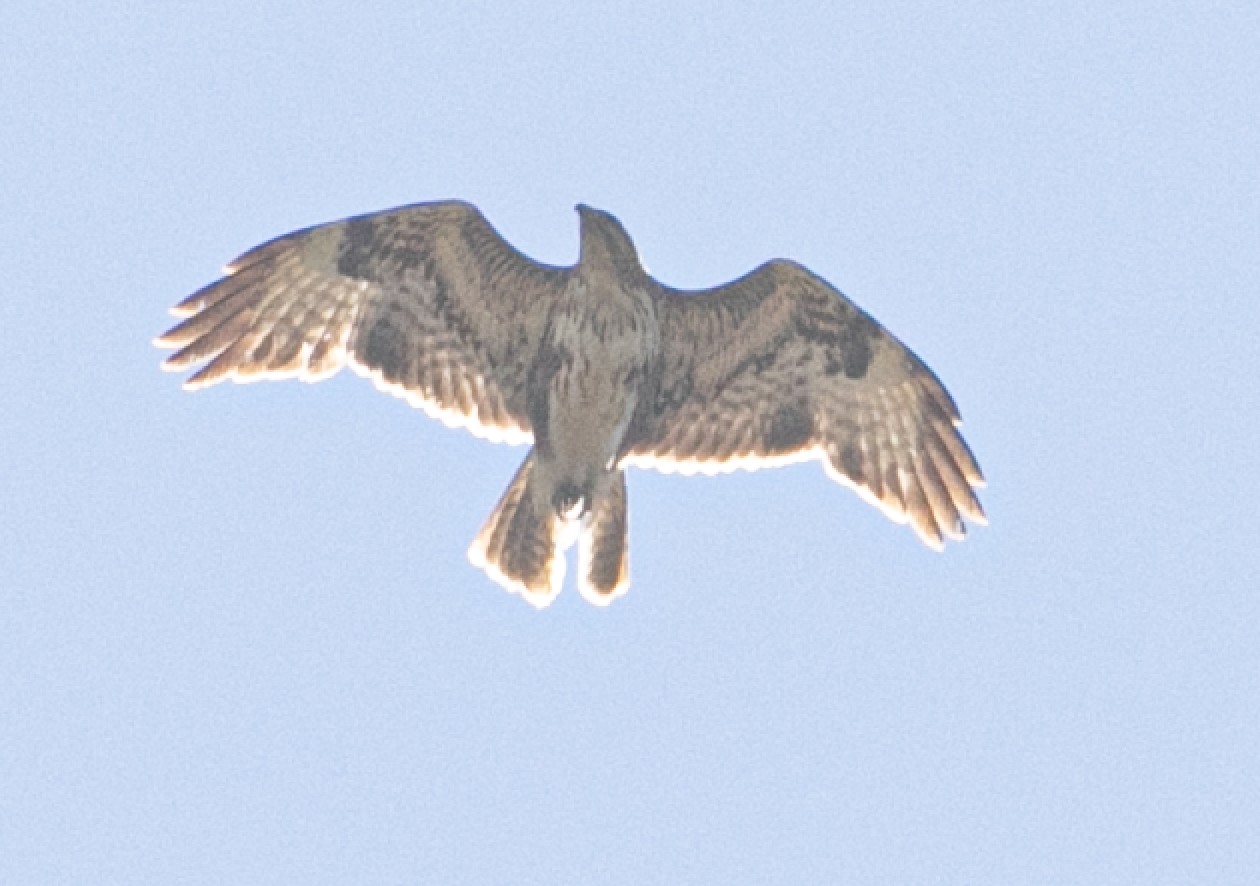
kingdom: Animalia
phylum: Chordata
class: Aves
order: Accipitriformes
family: Accipitridae
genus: Buteo
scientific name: Buteo buteo
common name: Common buzzard
